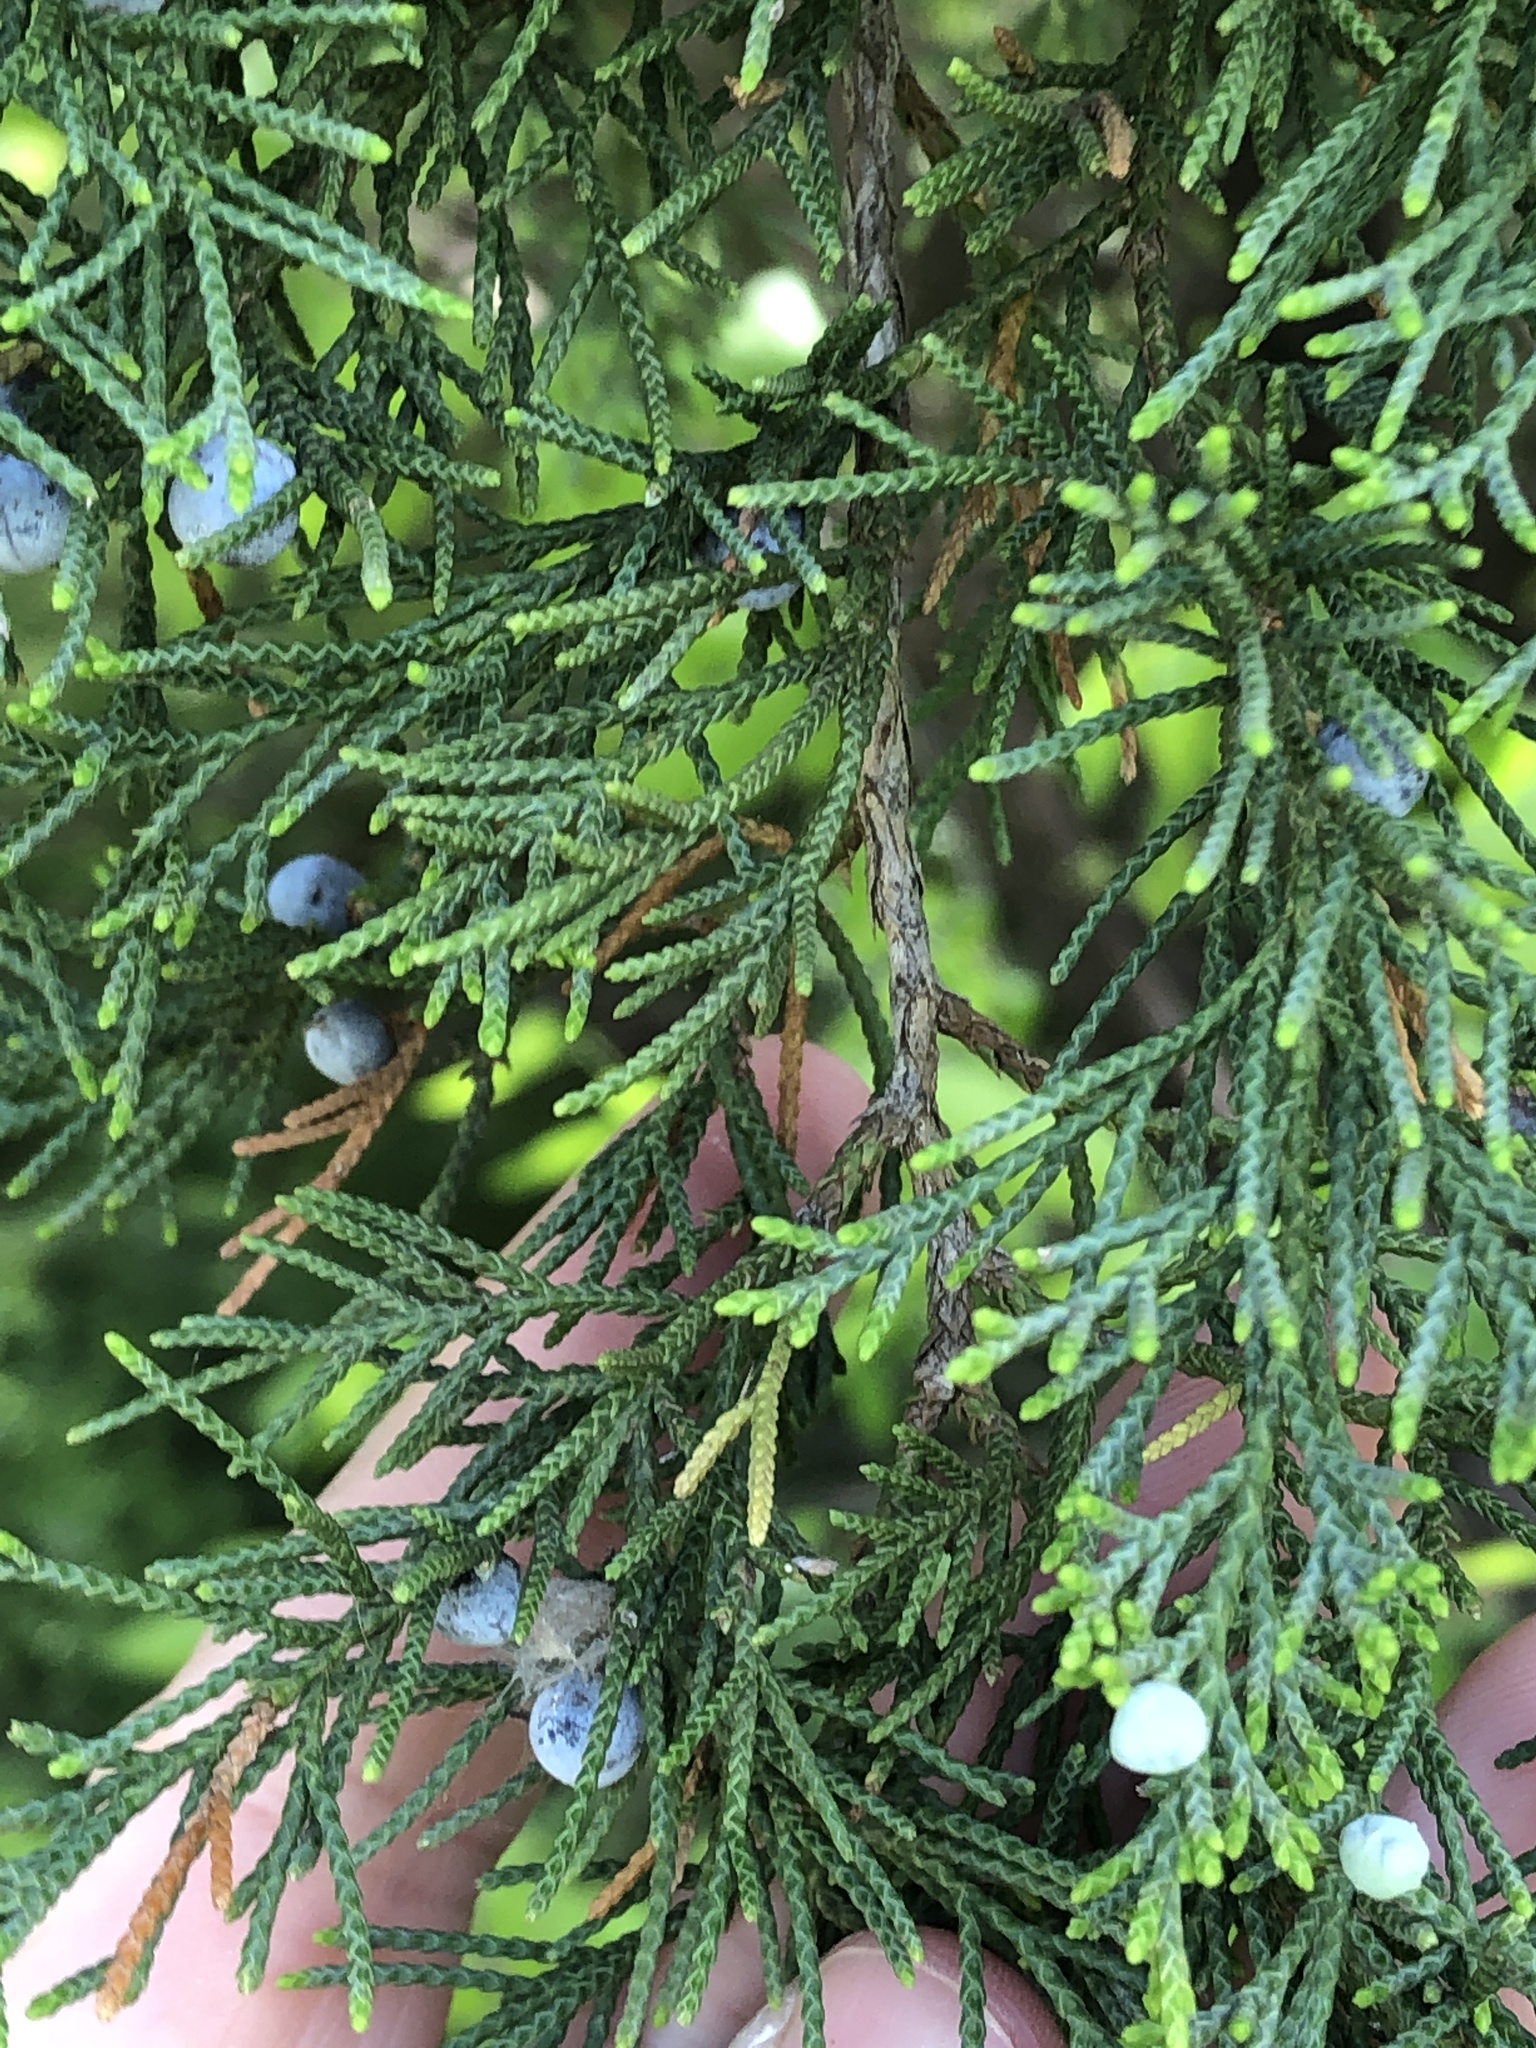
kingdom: Plantae
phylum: Tracheophyta
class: Pinopsida
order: Pinales
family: Cupressaceae
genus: Juniperus
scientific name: Juniperus virginiana
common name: Red juniper
